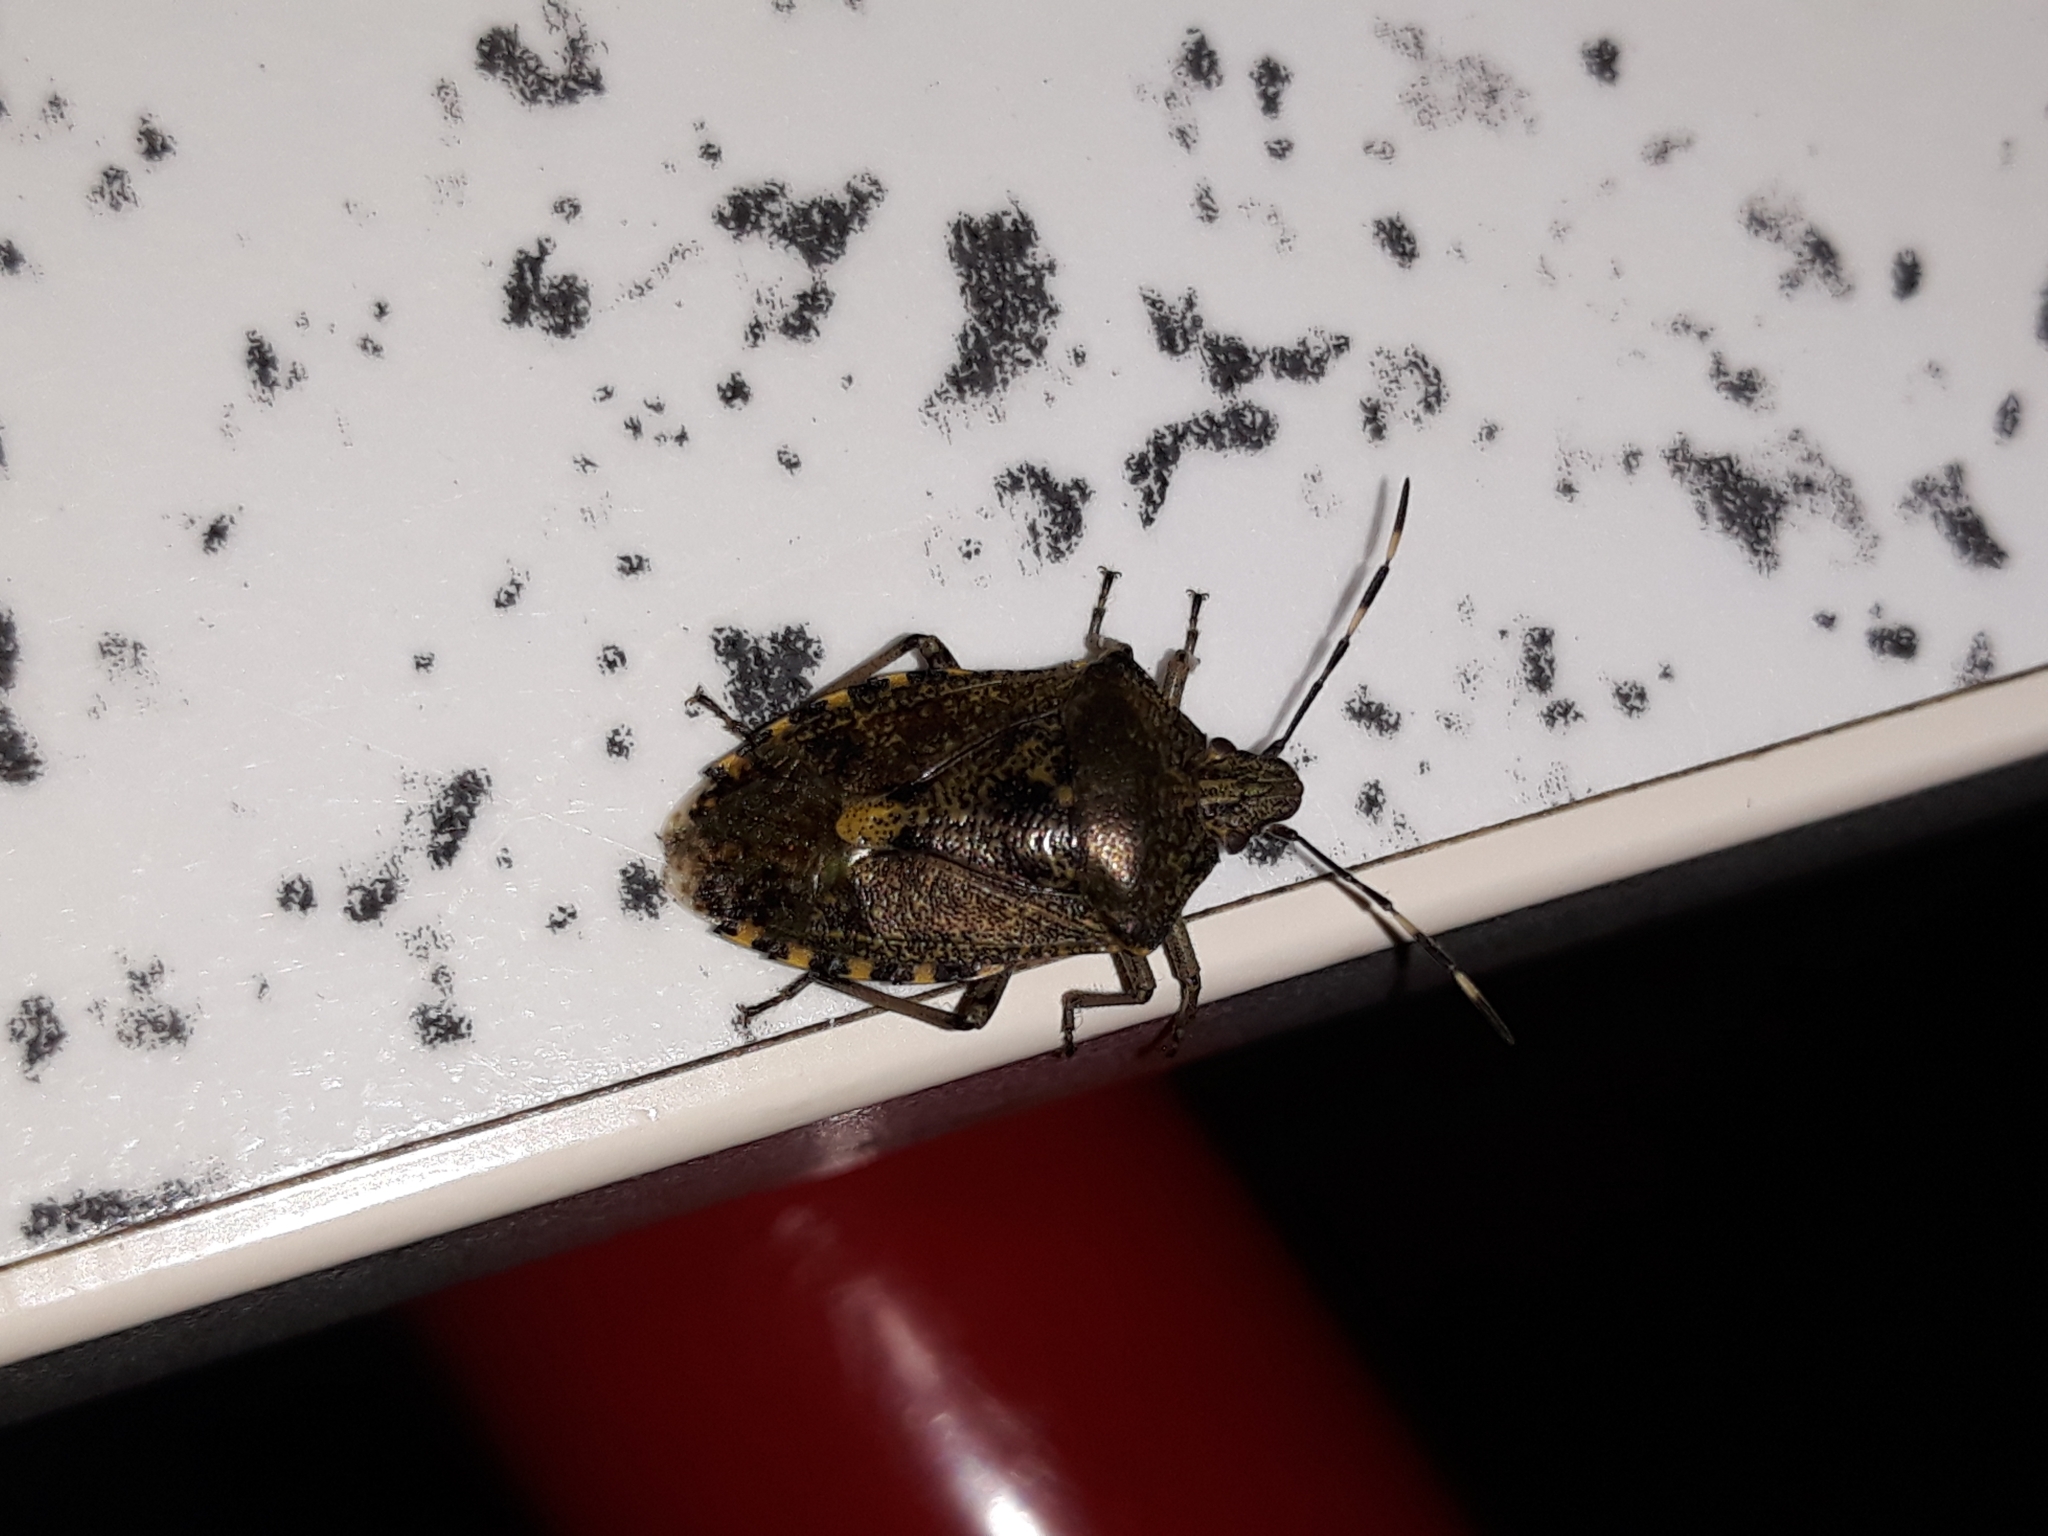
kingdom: Animalia
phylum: Arthropoda
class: Insecta
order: Hemiptera
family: Pentatomidae
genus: Rhaphigaster
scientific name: Rhaphigaster nebulosa
